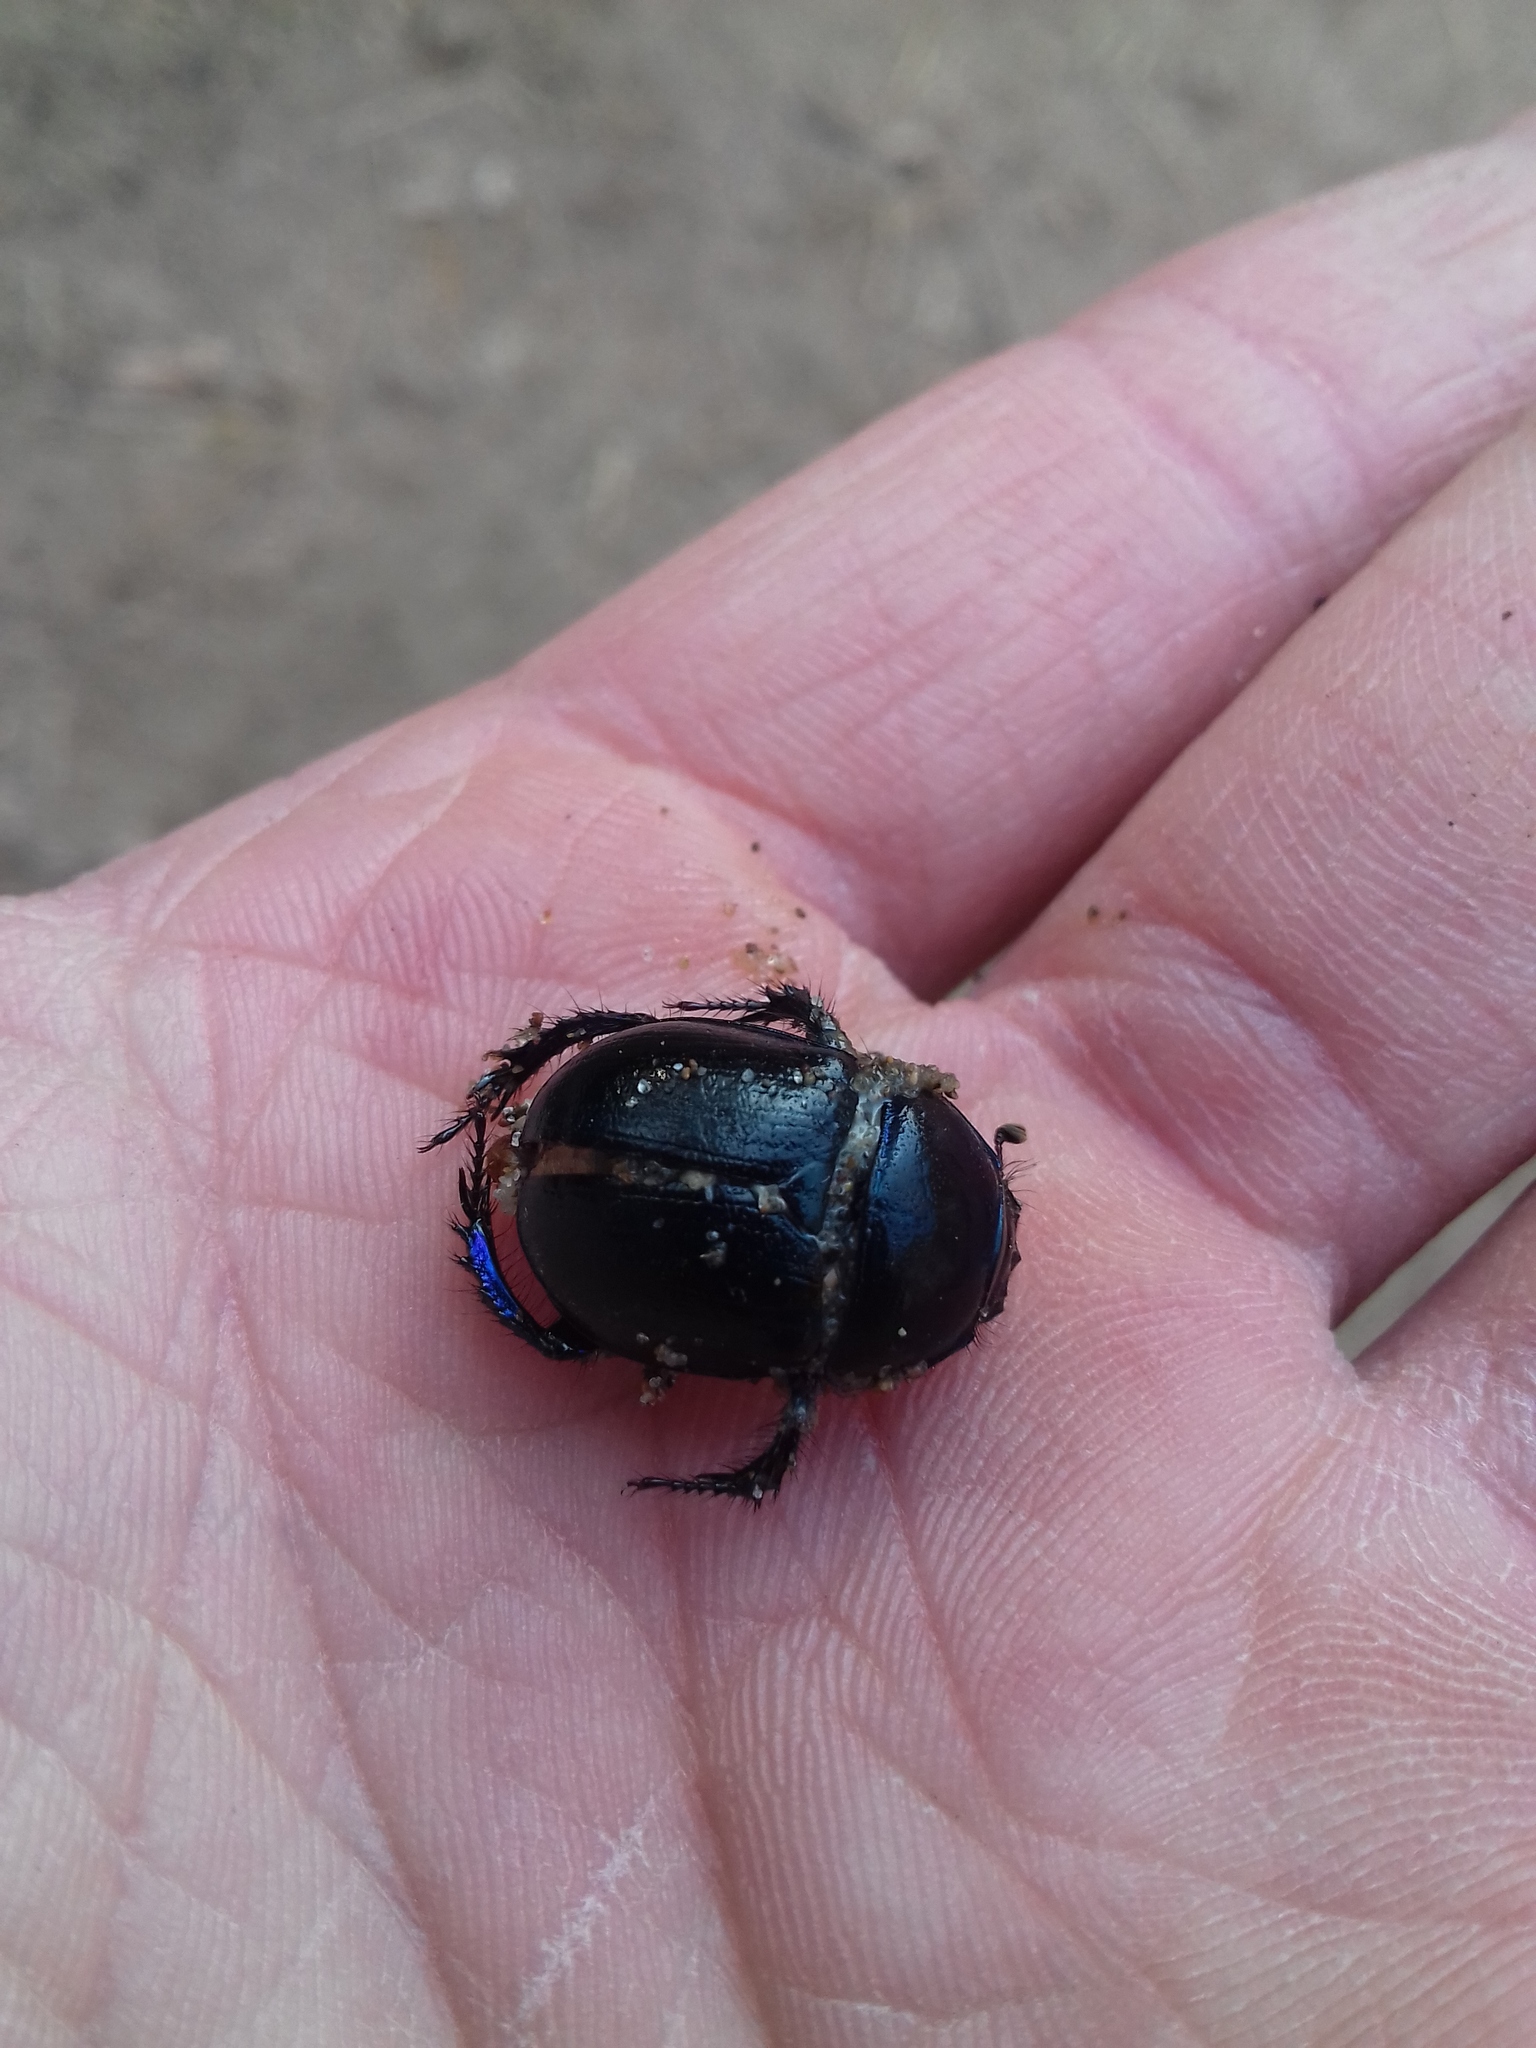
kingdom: Animalia
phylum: Arthropoda
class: Insecta
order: Coleoptera
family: Geotrupidae
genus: Anoplotrupes
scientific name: Anoplotrupes stercorosus
